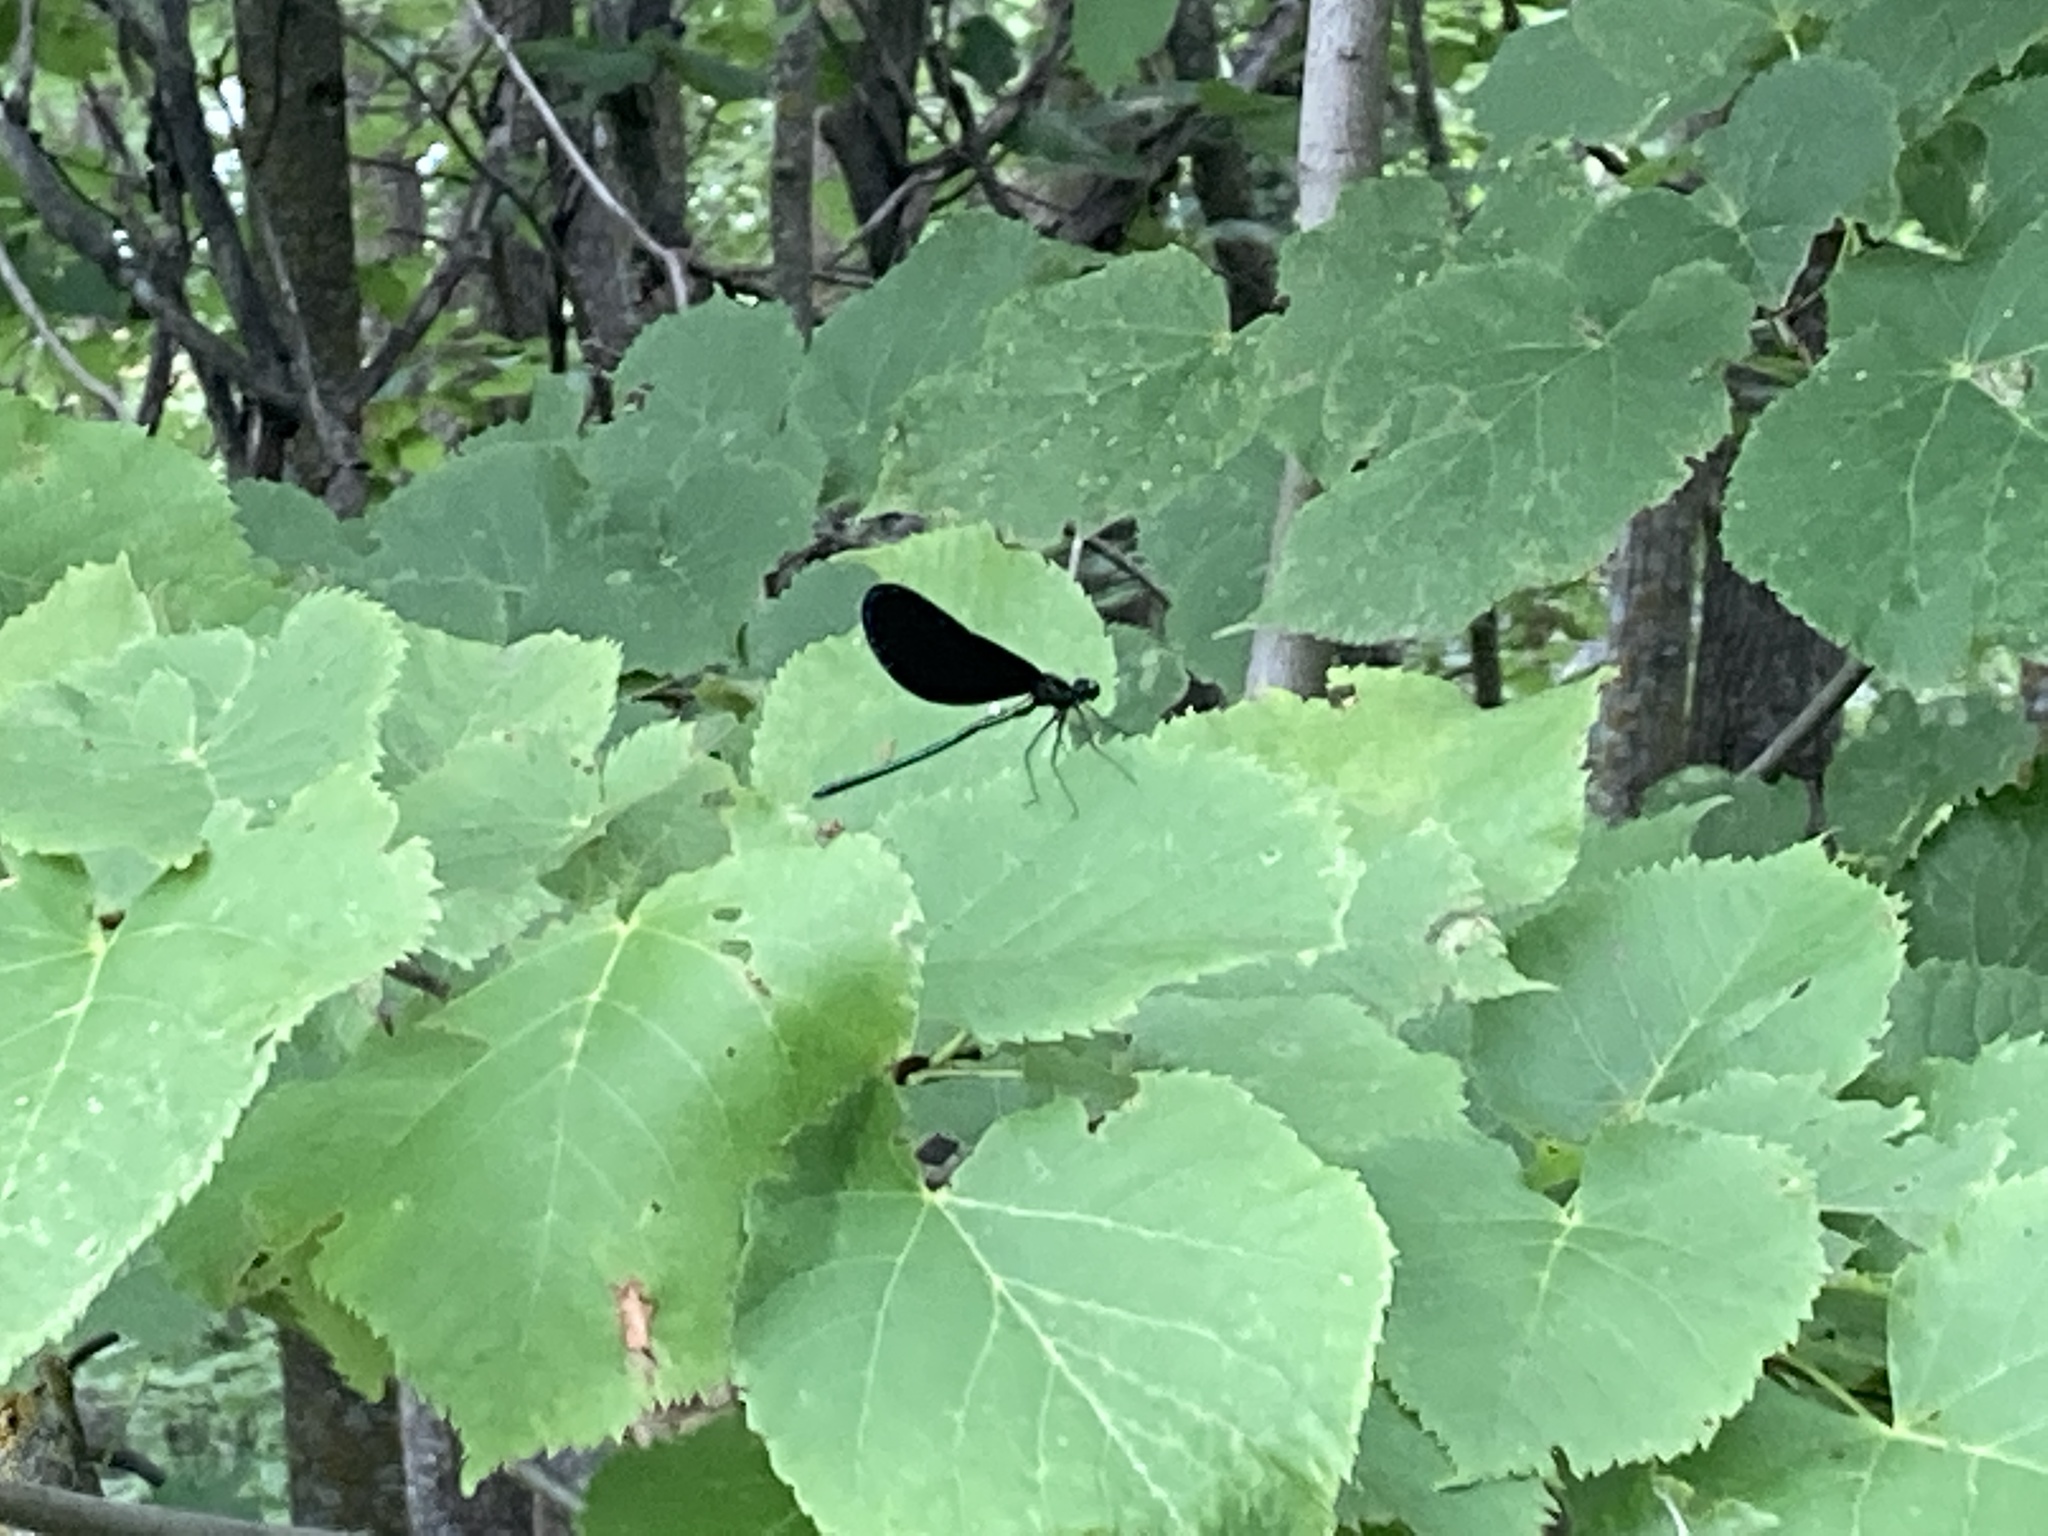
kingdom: Animalia
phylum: Arthropoda
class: Insecta
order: Odonata
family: Calopterygidae
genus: Calopteryx
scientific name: Calopteryx maculata
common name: Ebony jewelwing
